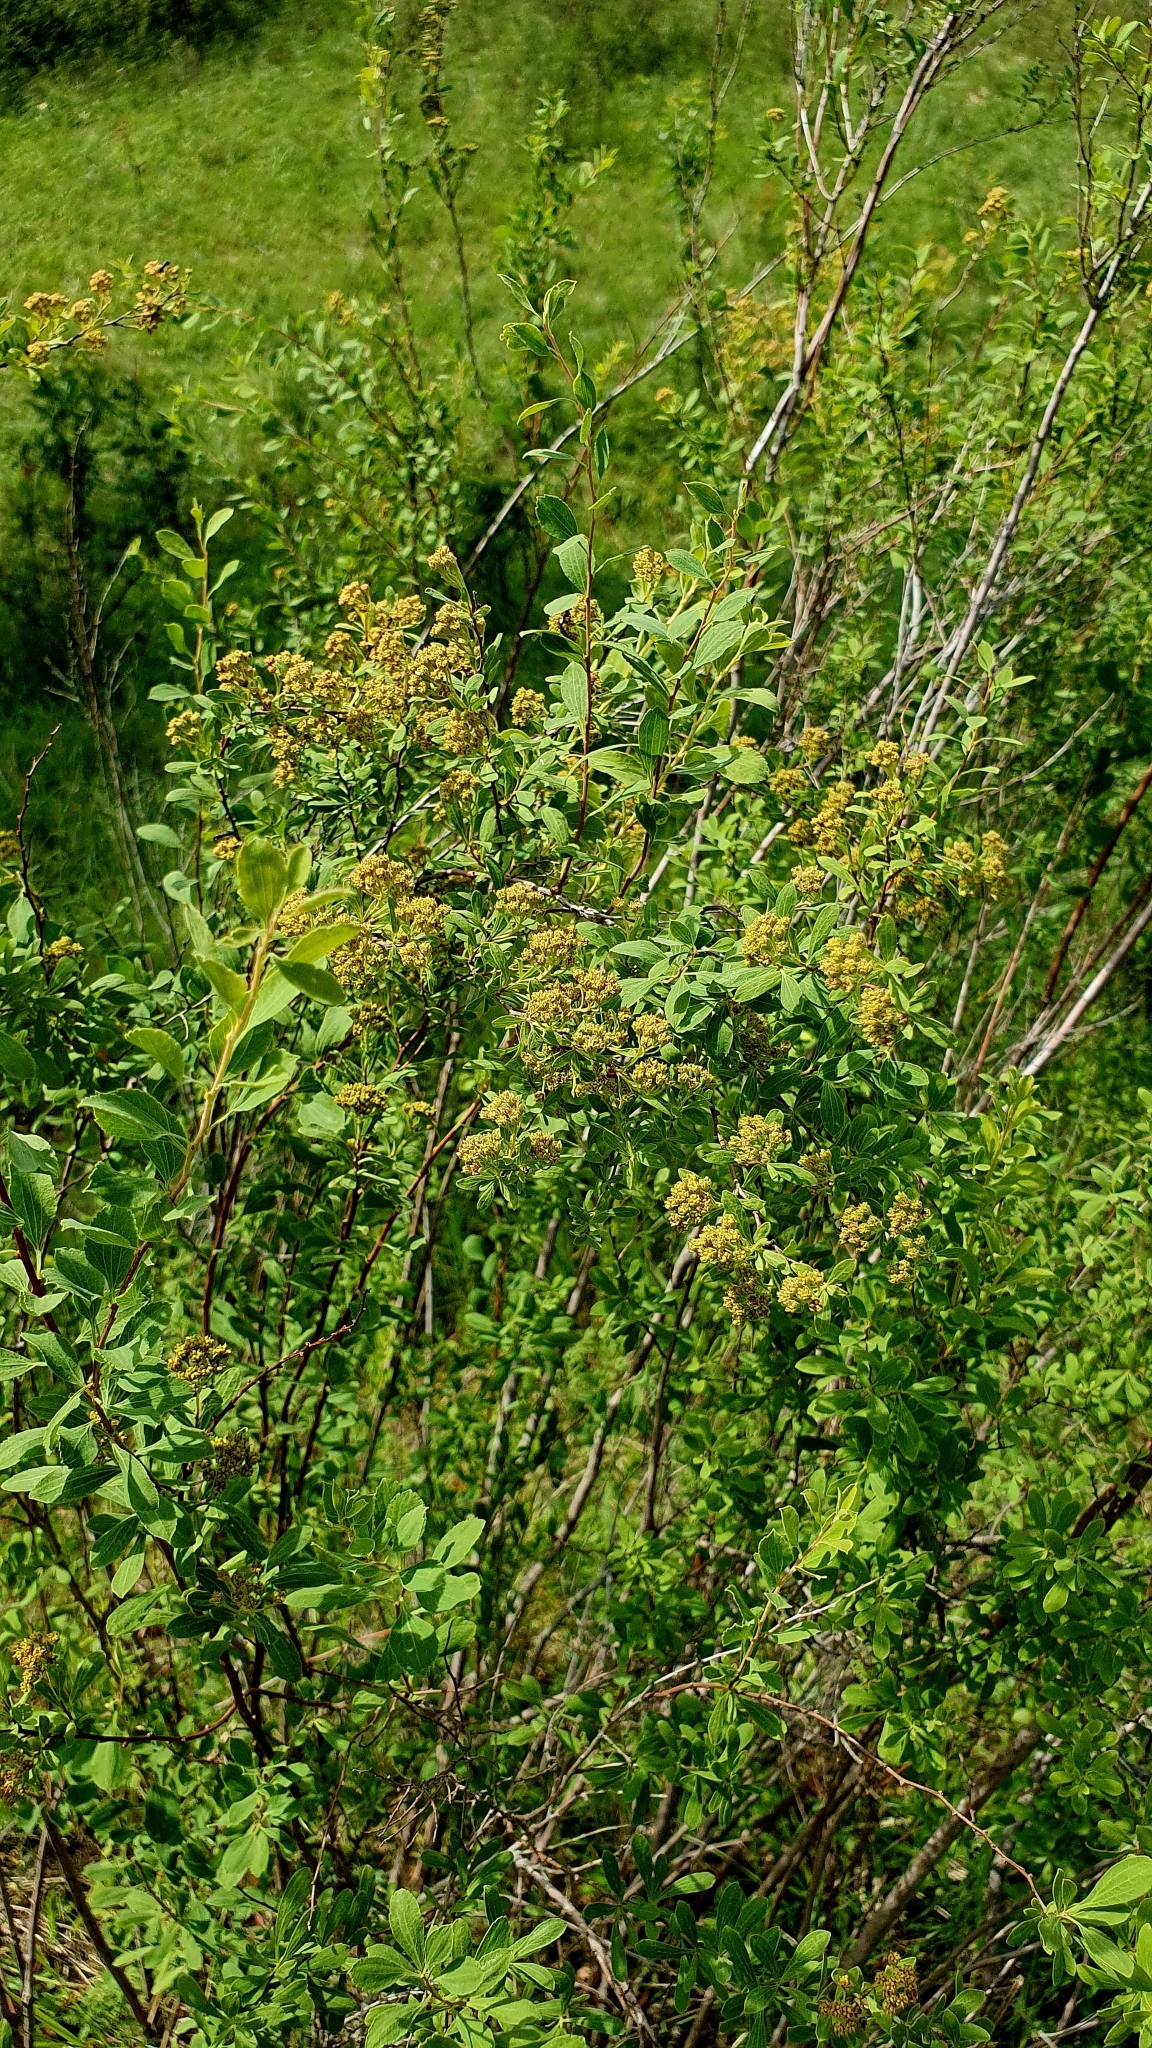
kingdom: Plantae
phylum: Tracheophyta
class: Magnoliopsida
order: Rosales
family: Rosaceae
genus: Spiraea
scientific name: Spiraea crenata
